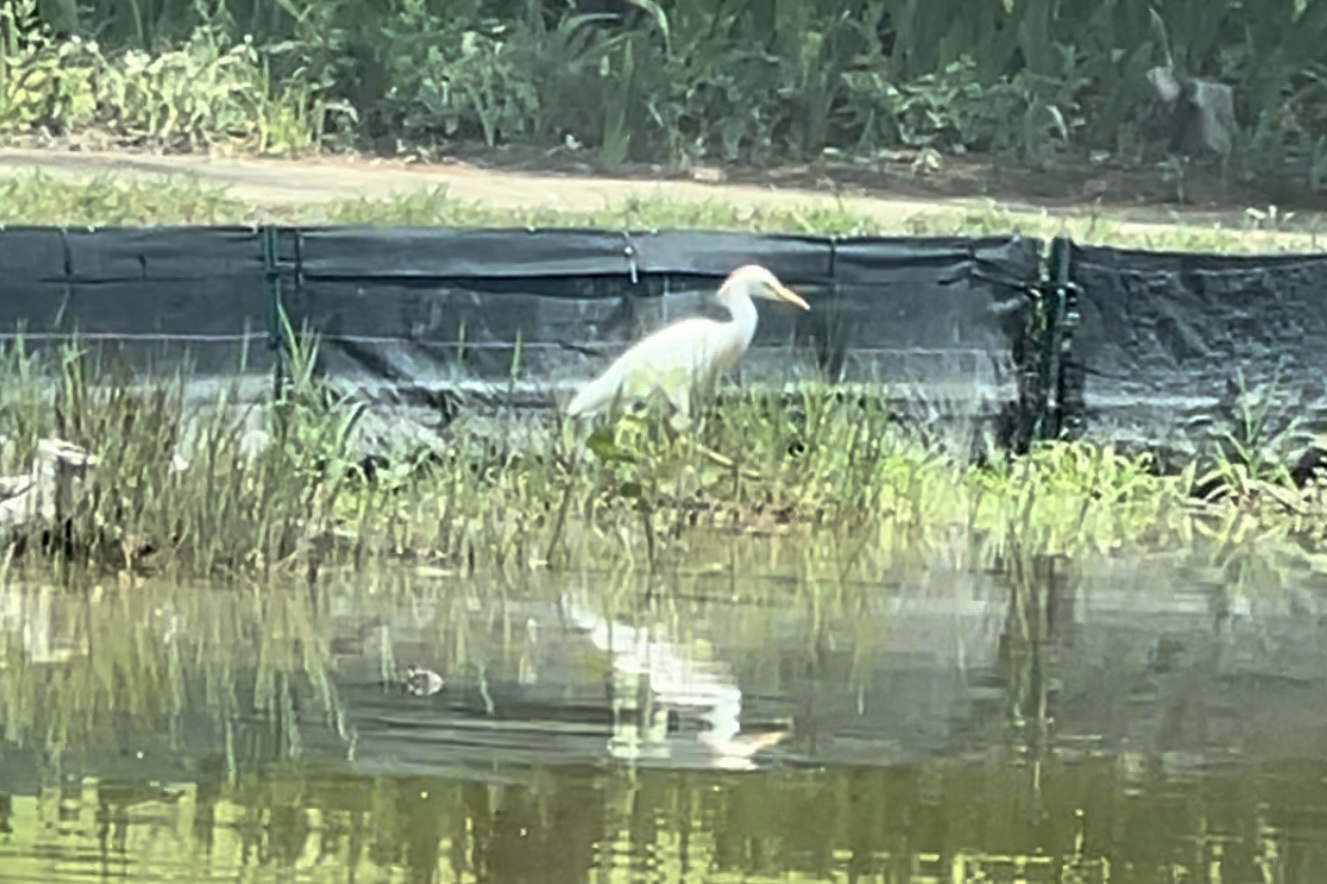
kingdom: Animalia
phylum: Chordata
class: Aves
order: Pelecaniformes
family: Ardeidae
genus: Bubulcus
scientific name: Bubulcus ibis
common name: Cattle egret
